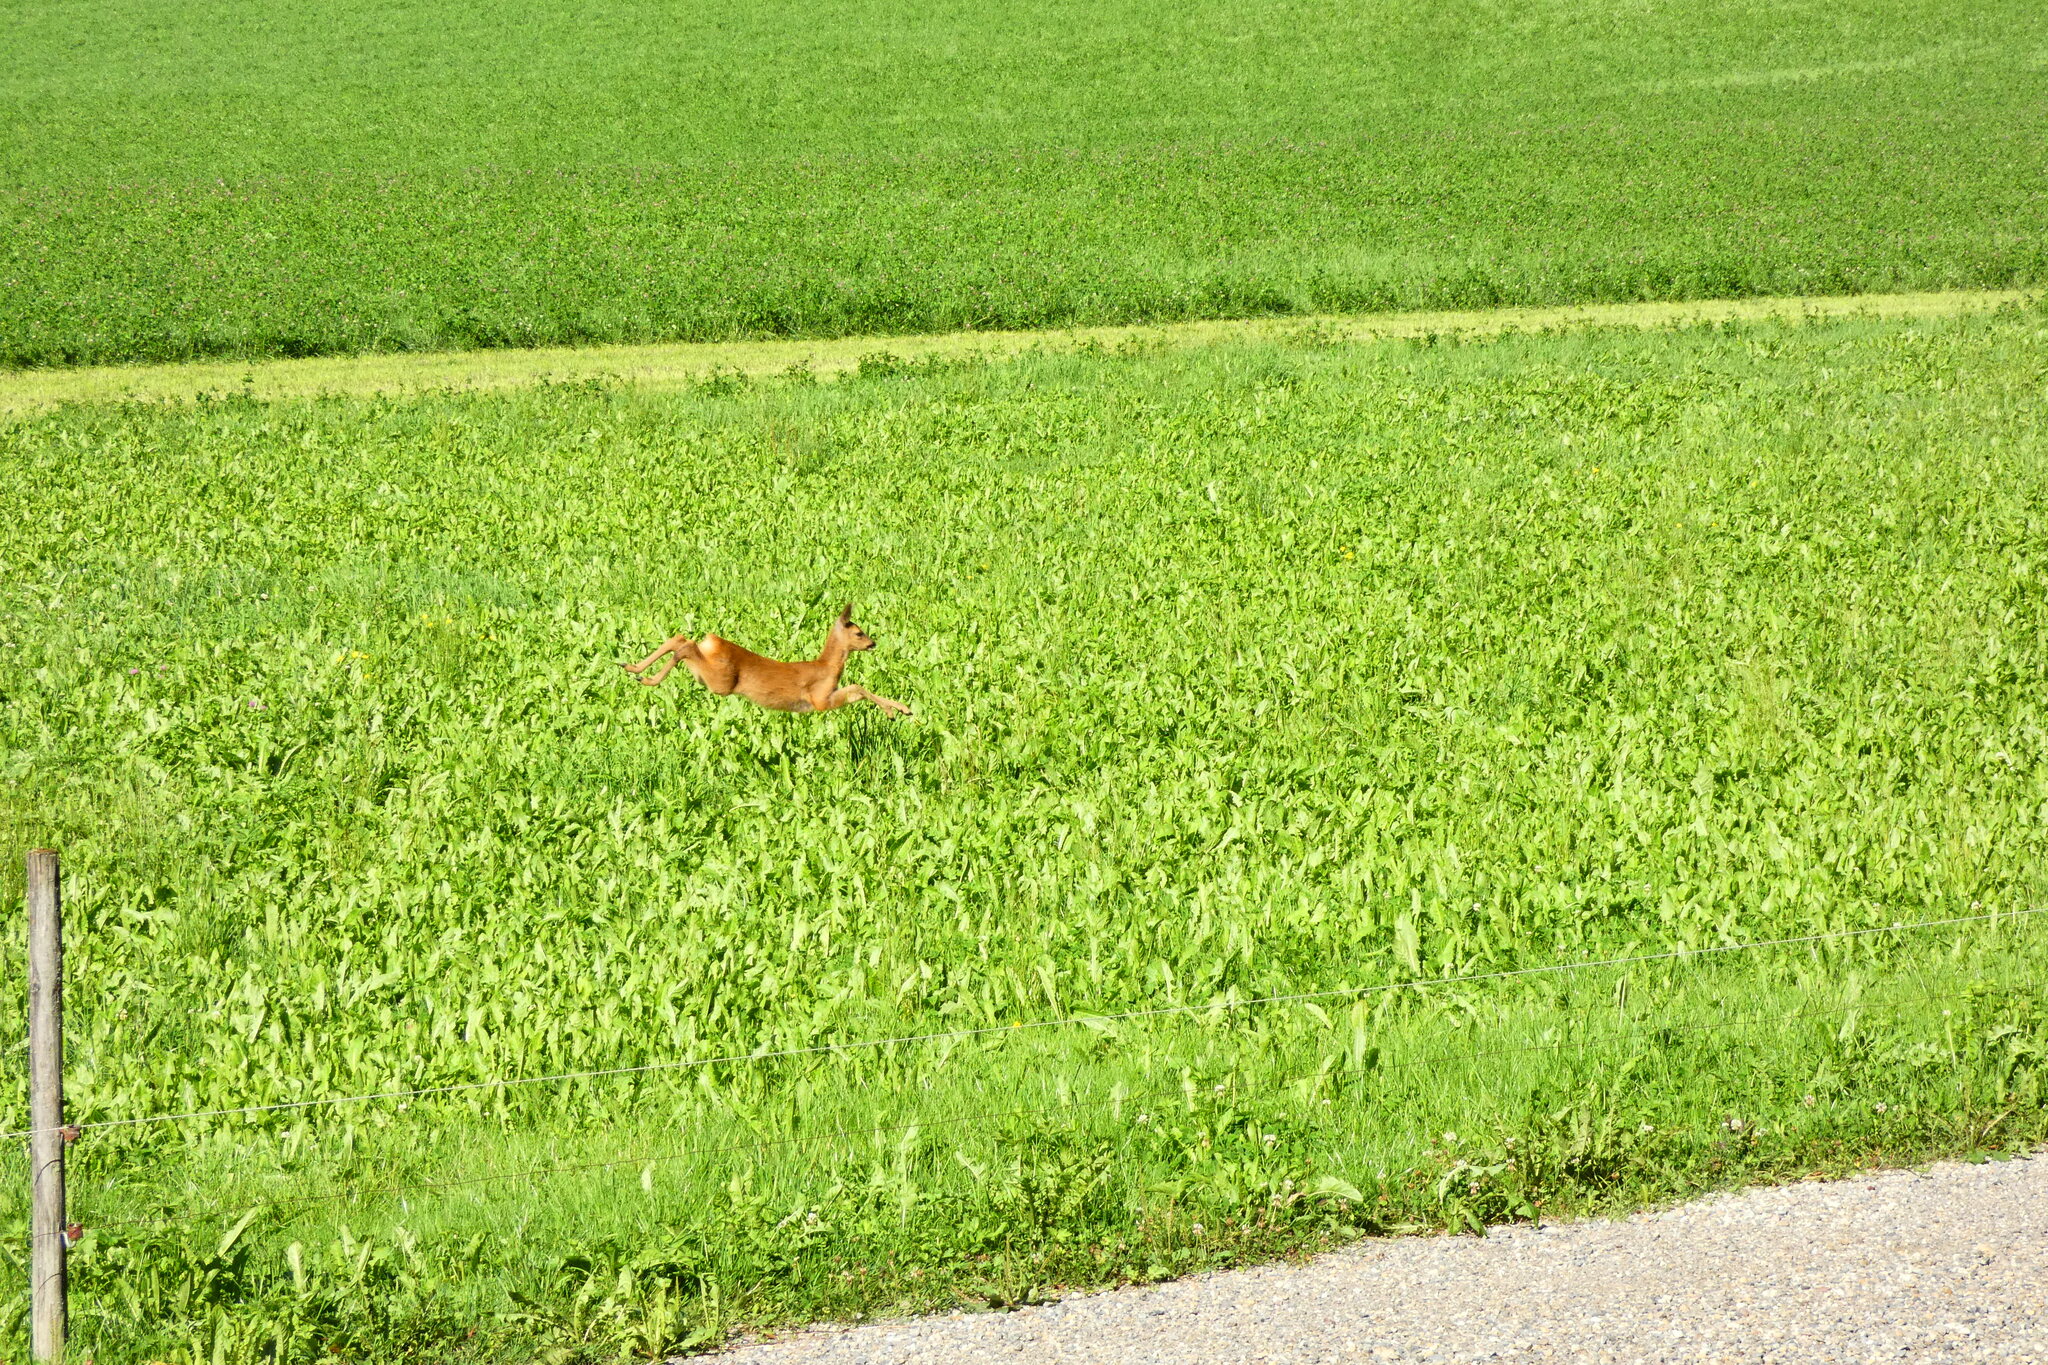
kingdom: Animalia
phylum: Chordata
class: Mammalia
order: Artiodactyla
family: Cervidae
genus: Capreolus
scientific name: Capreolus capreolus
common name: Western roe deer
